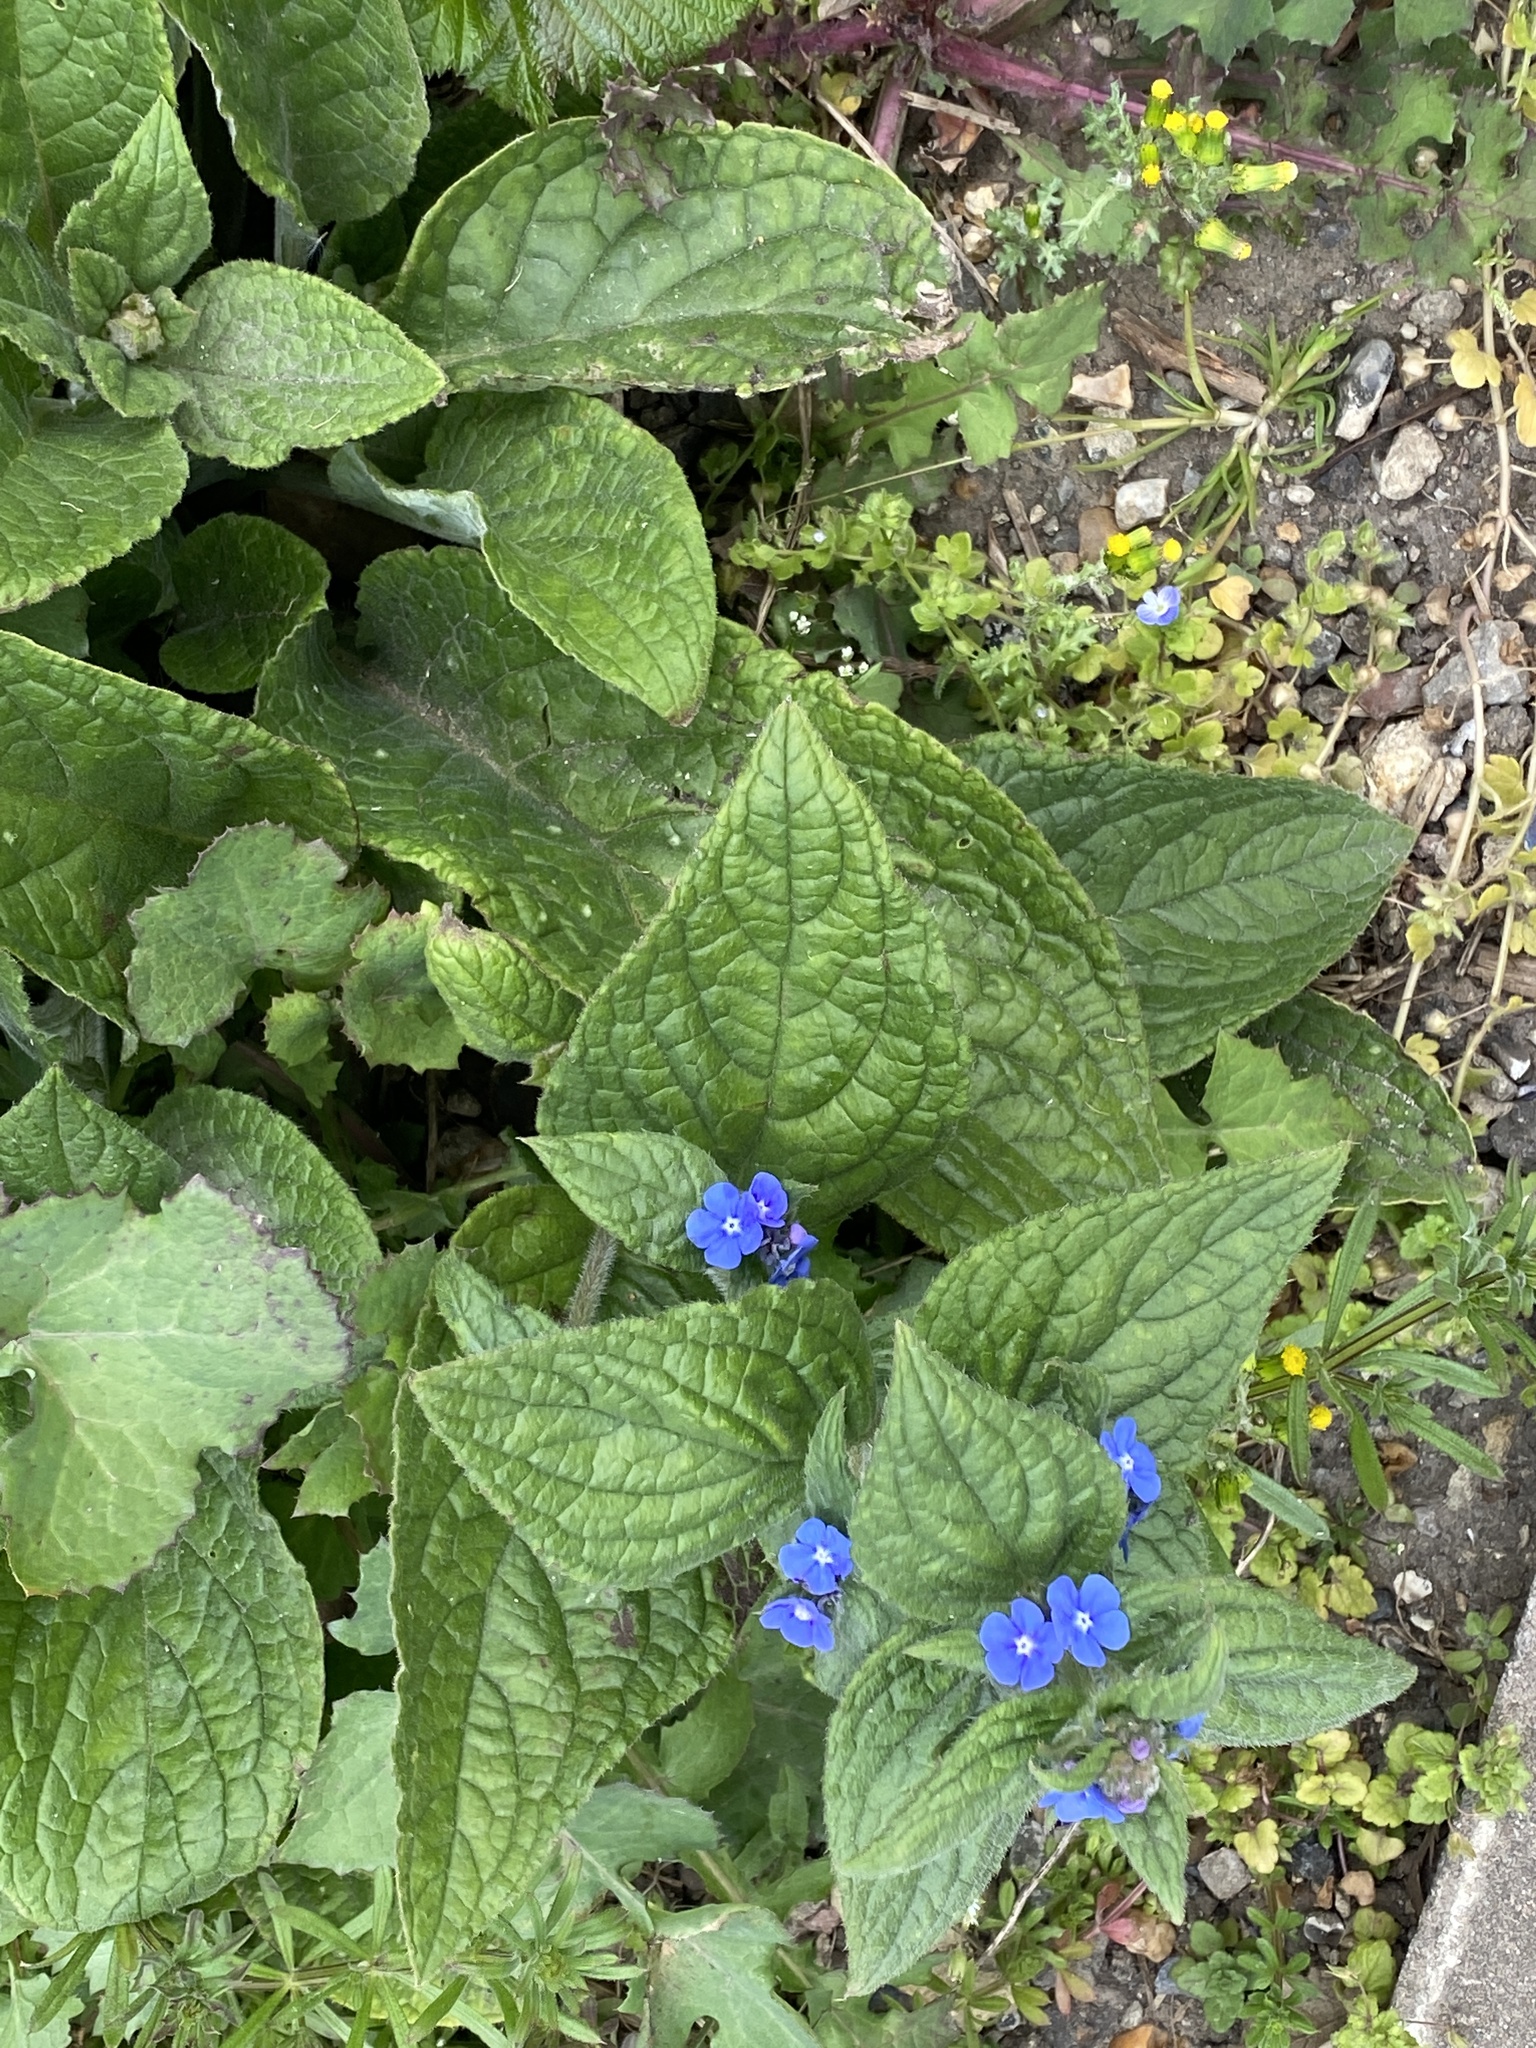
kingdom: Plantae
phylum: Tracheophyta
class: Magnoliopsida
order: Boraginales
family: Boraginaceae
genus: Pentaglottis
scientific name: Pentaglottis sempervirens
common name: Green alkanet
